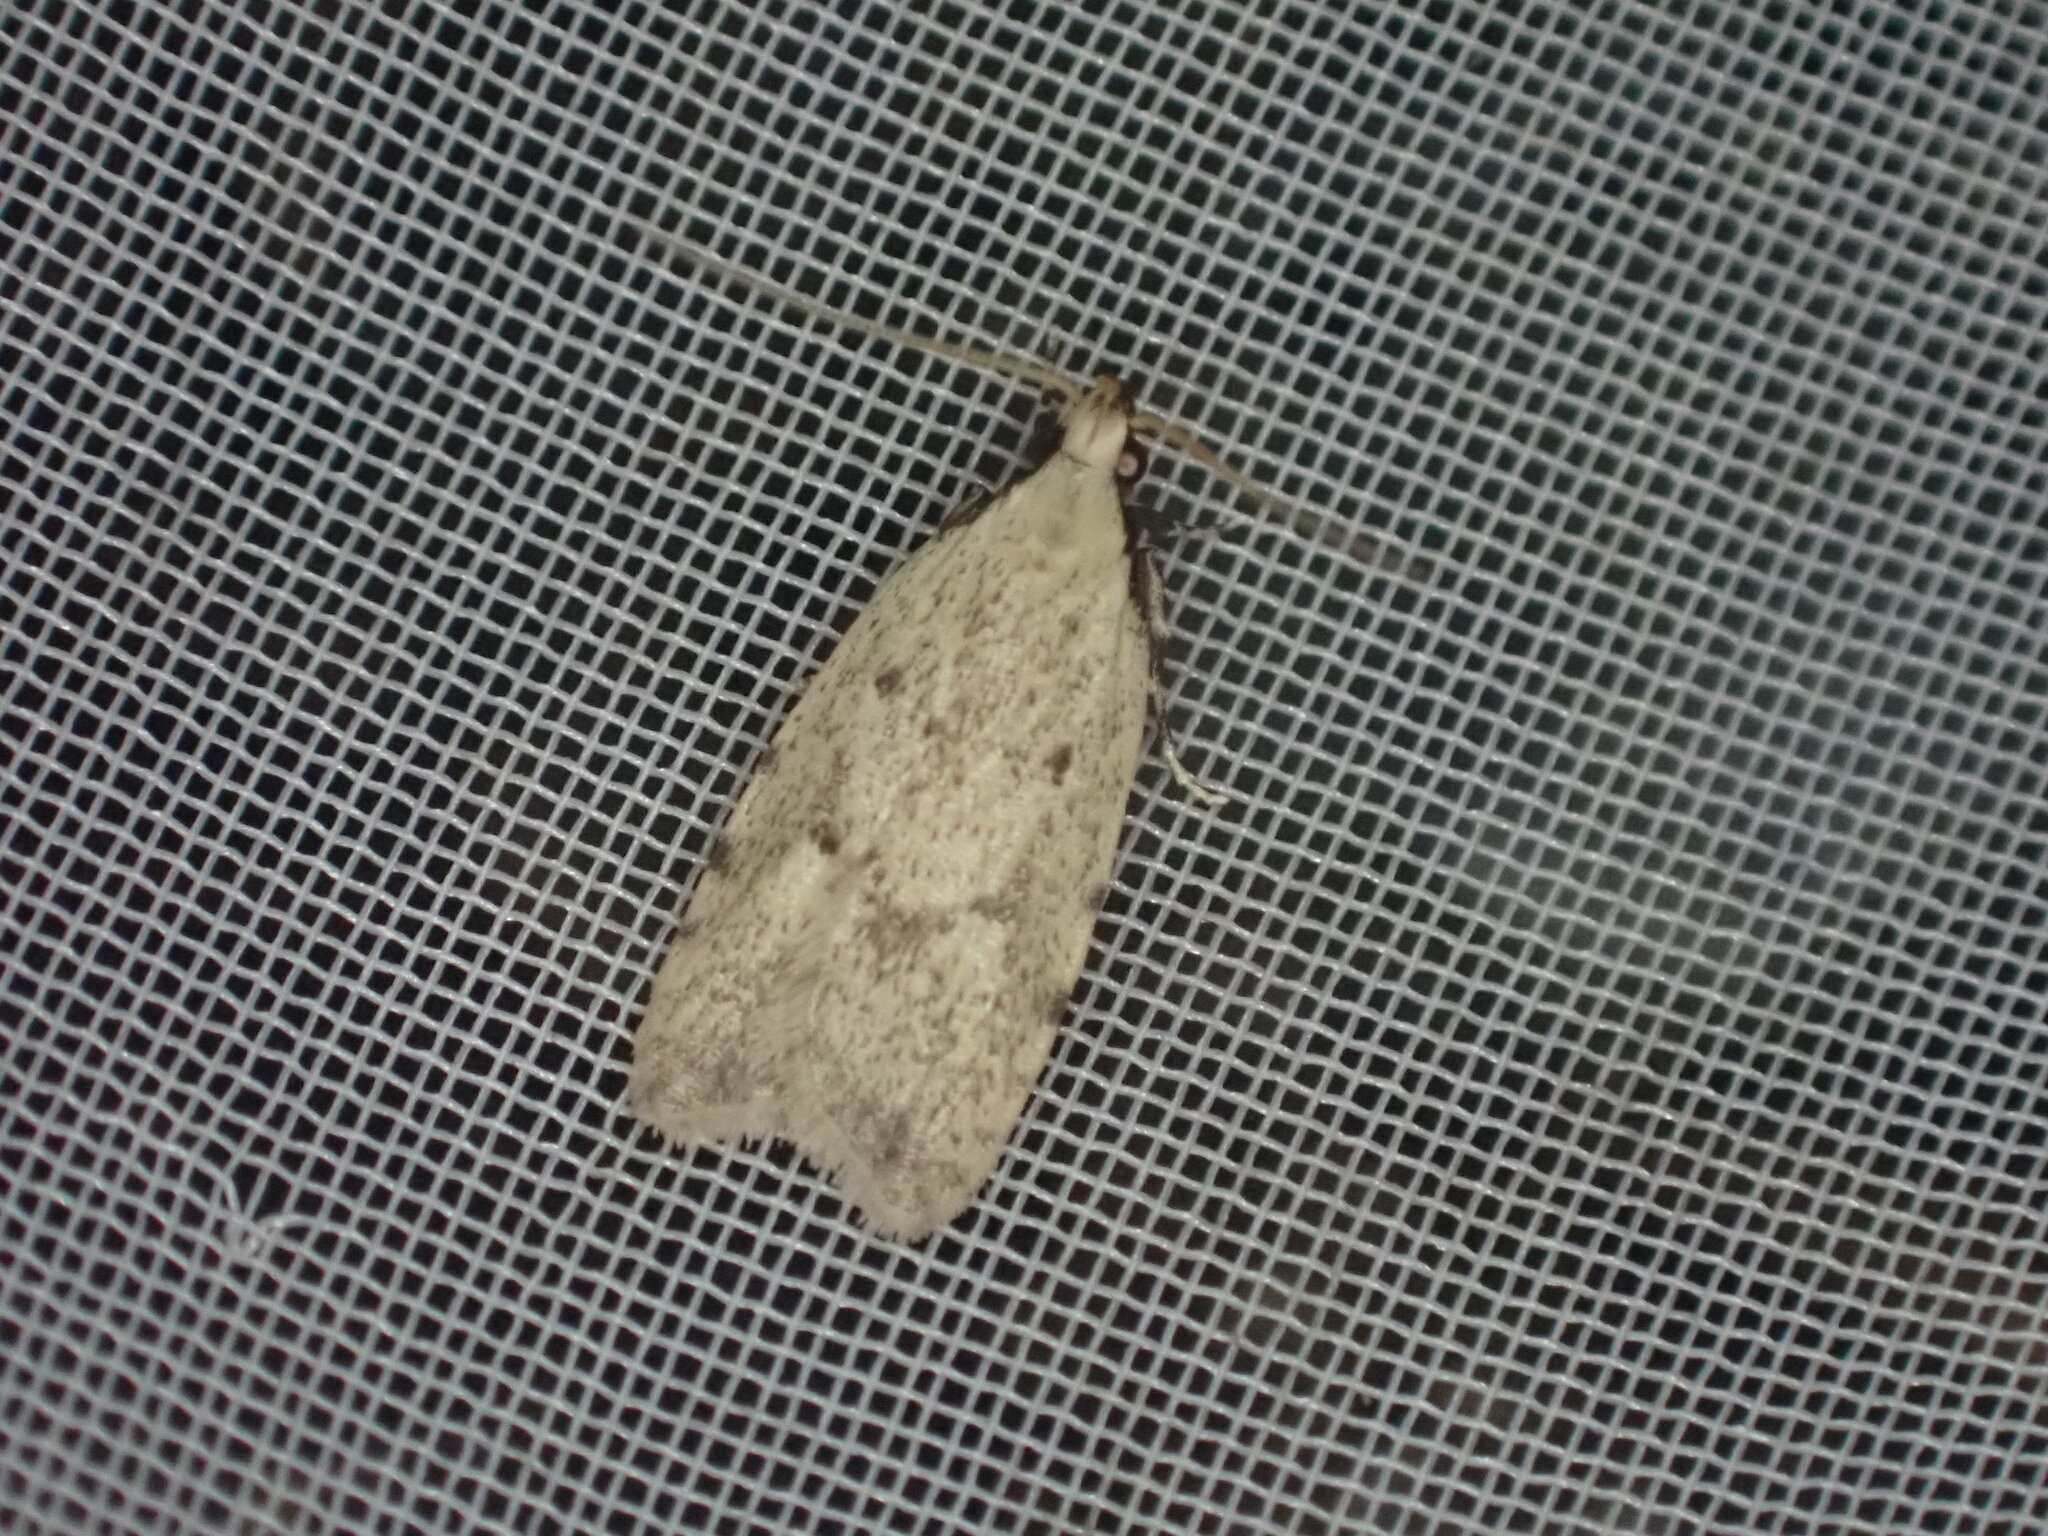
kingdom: Animalia
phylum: Arthropoda
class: Insecta
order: Lepidoptera
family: Oecophoridae
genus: Gymnobathra
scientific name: Gymnobathra calliploca
